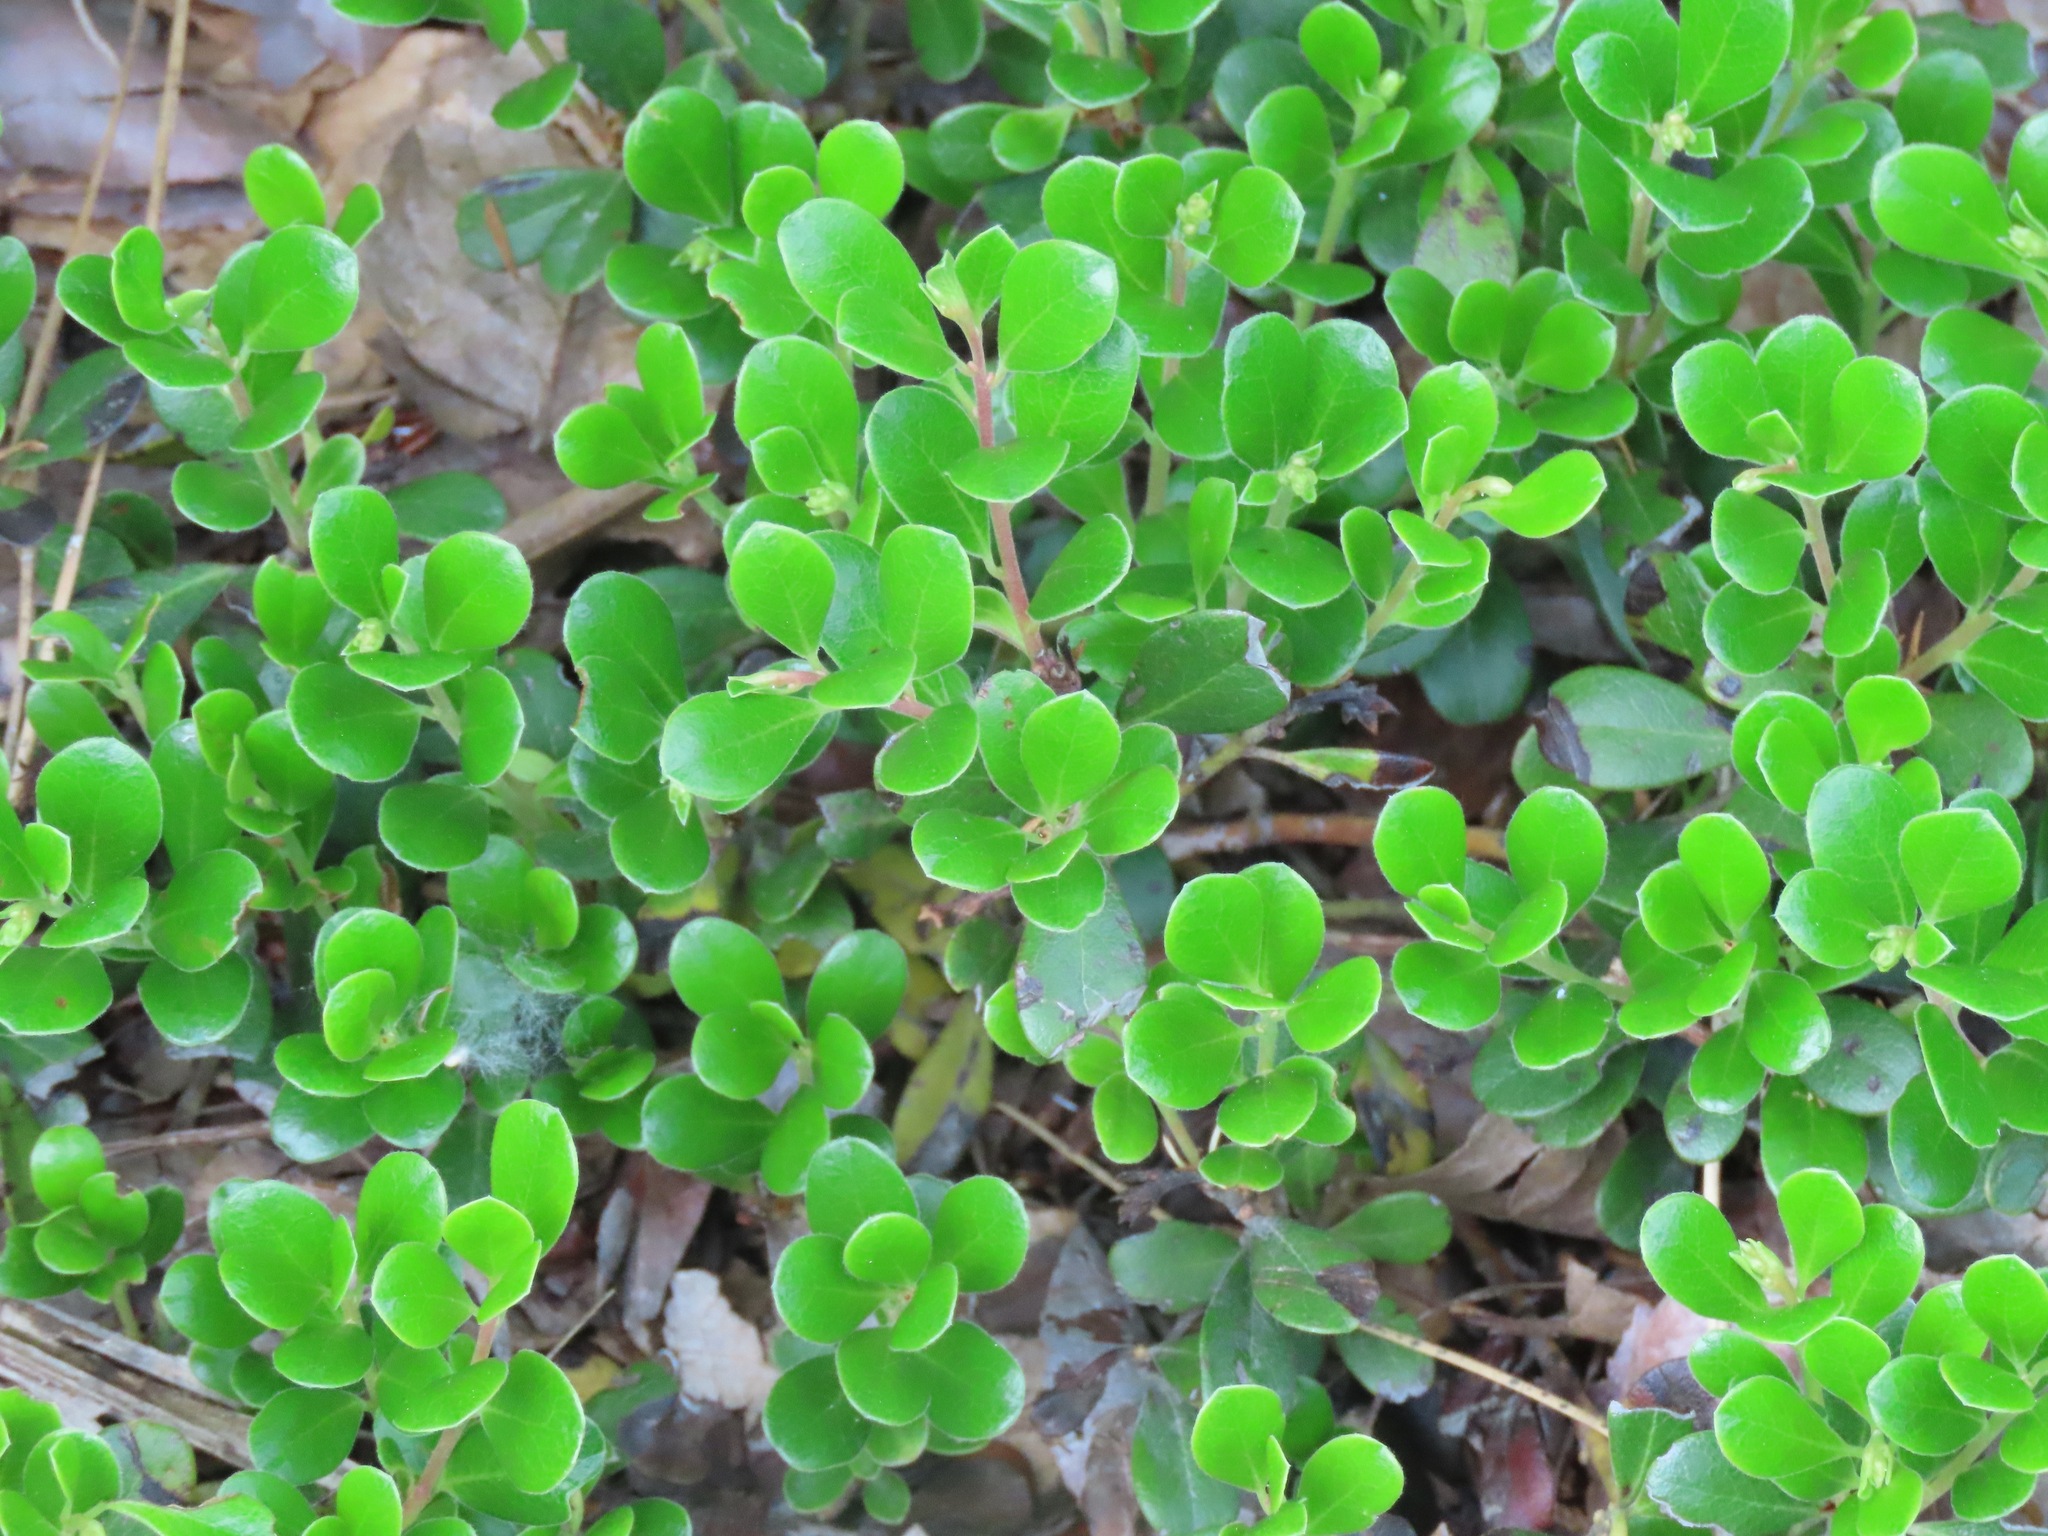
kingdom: Plantae
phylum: Tracheophyta
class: Magnoliopsida
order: Ericales
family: Ericaceae
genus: Arctostaphylos
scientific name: Arctostaphylos uva-ursi
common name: Bearberry
